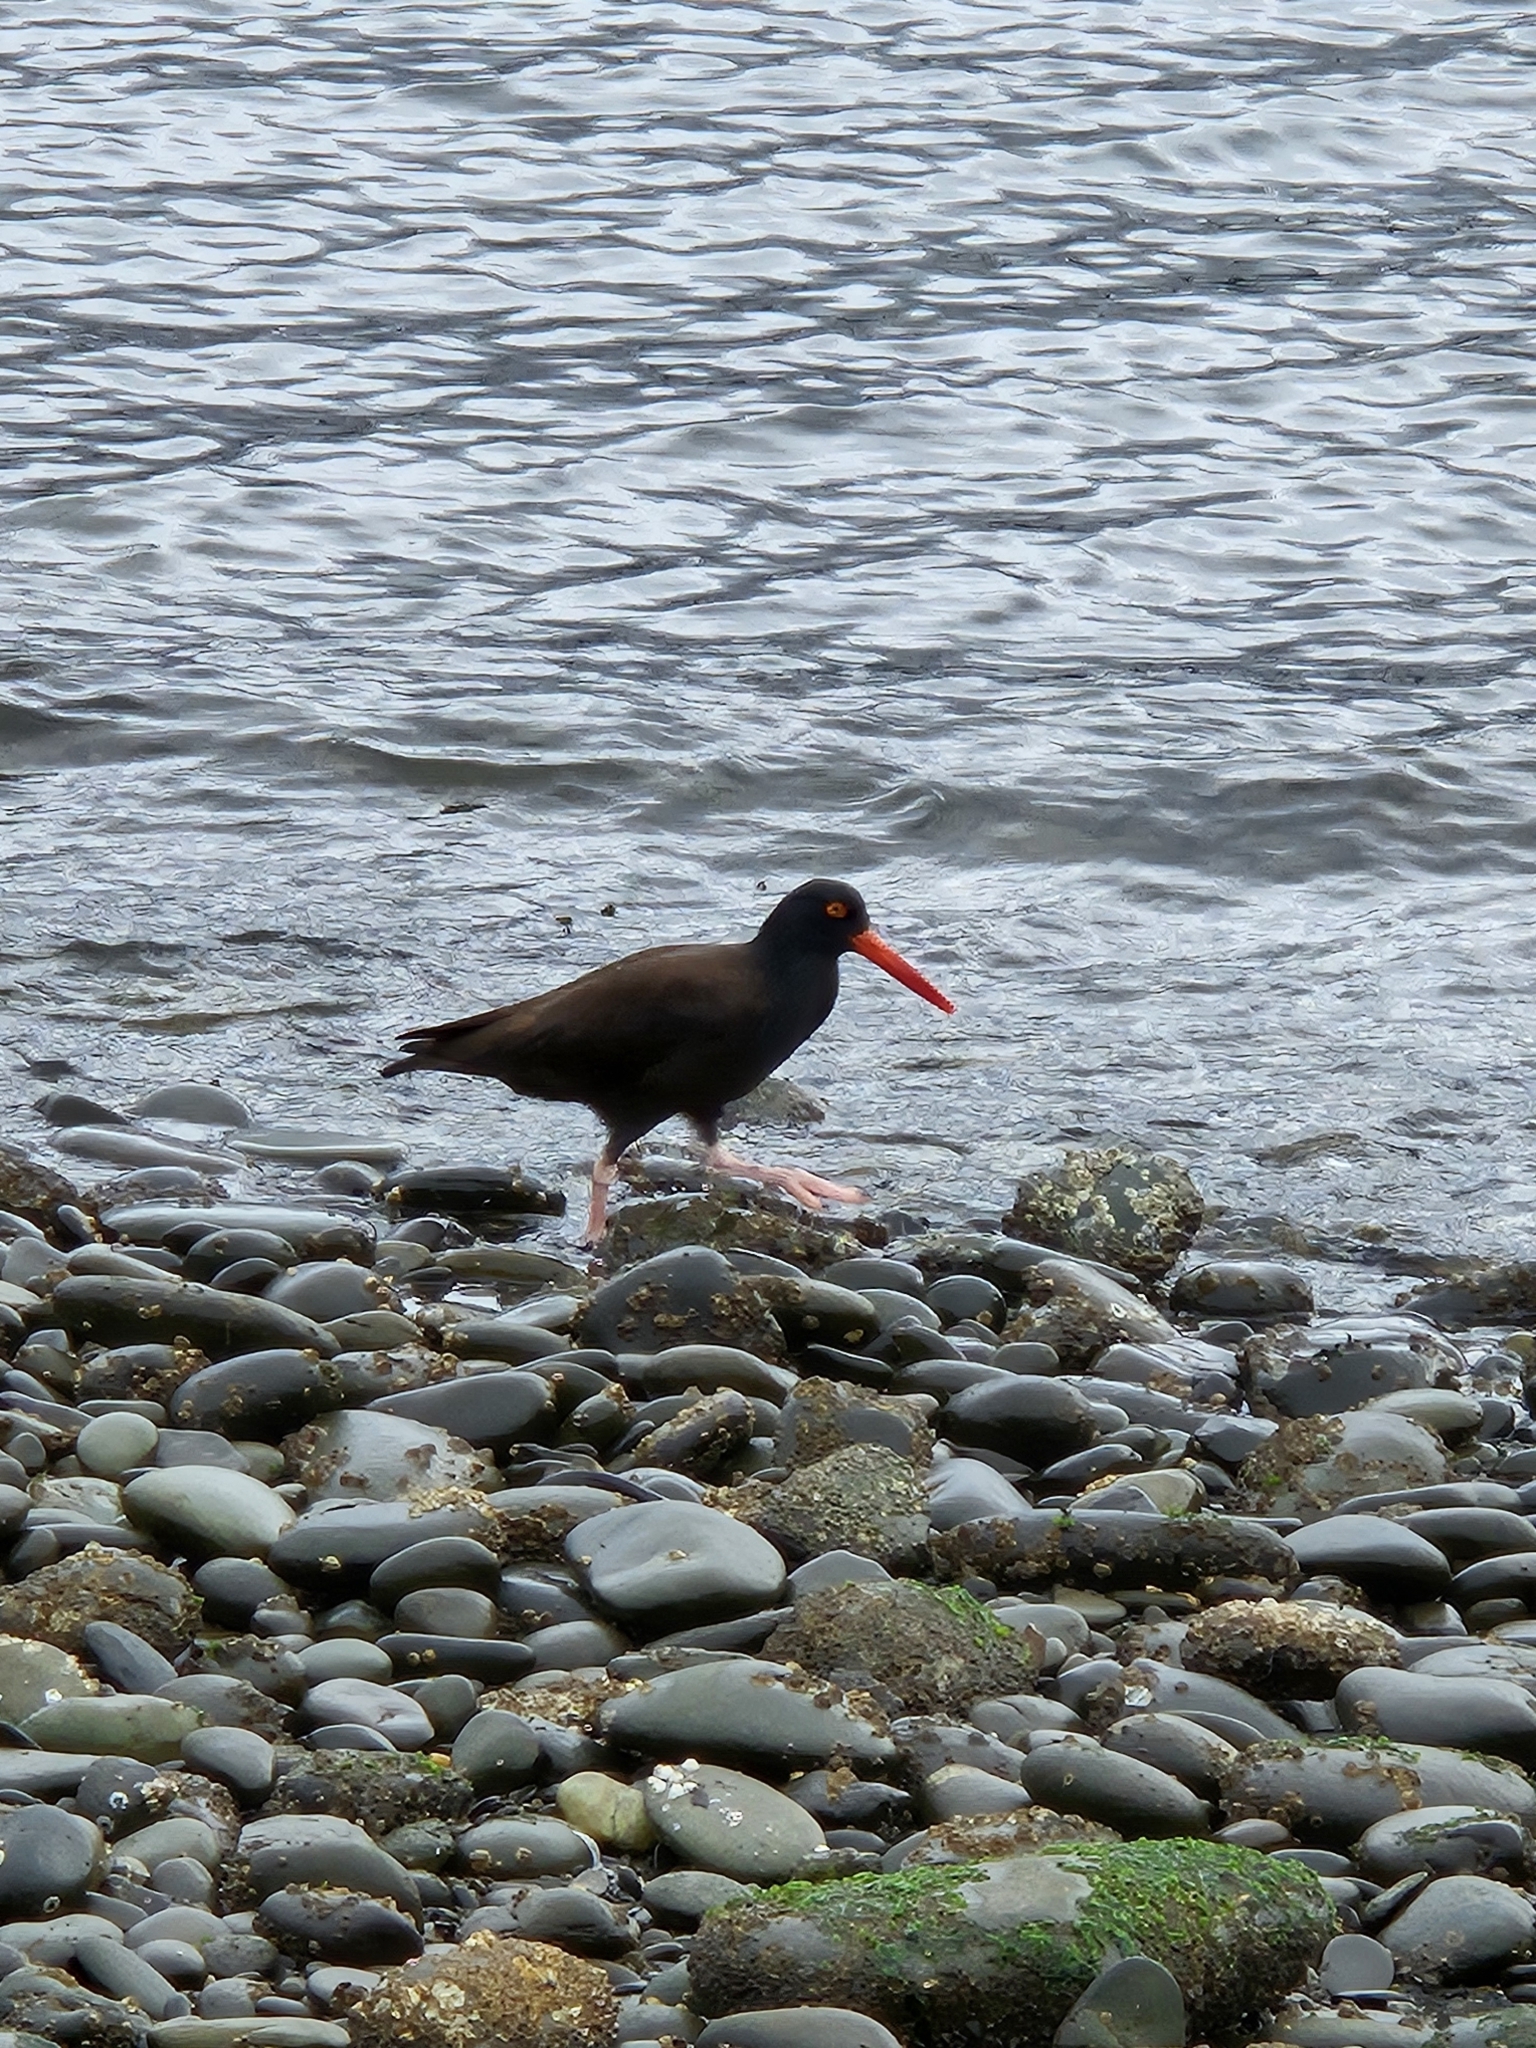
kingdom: Animalia
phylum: Chordata
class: Aves
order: Charadriiformes
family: Haematopodidae
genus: Haematopus
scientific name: Haematopus bachmani
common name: Black oystercatcher
